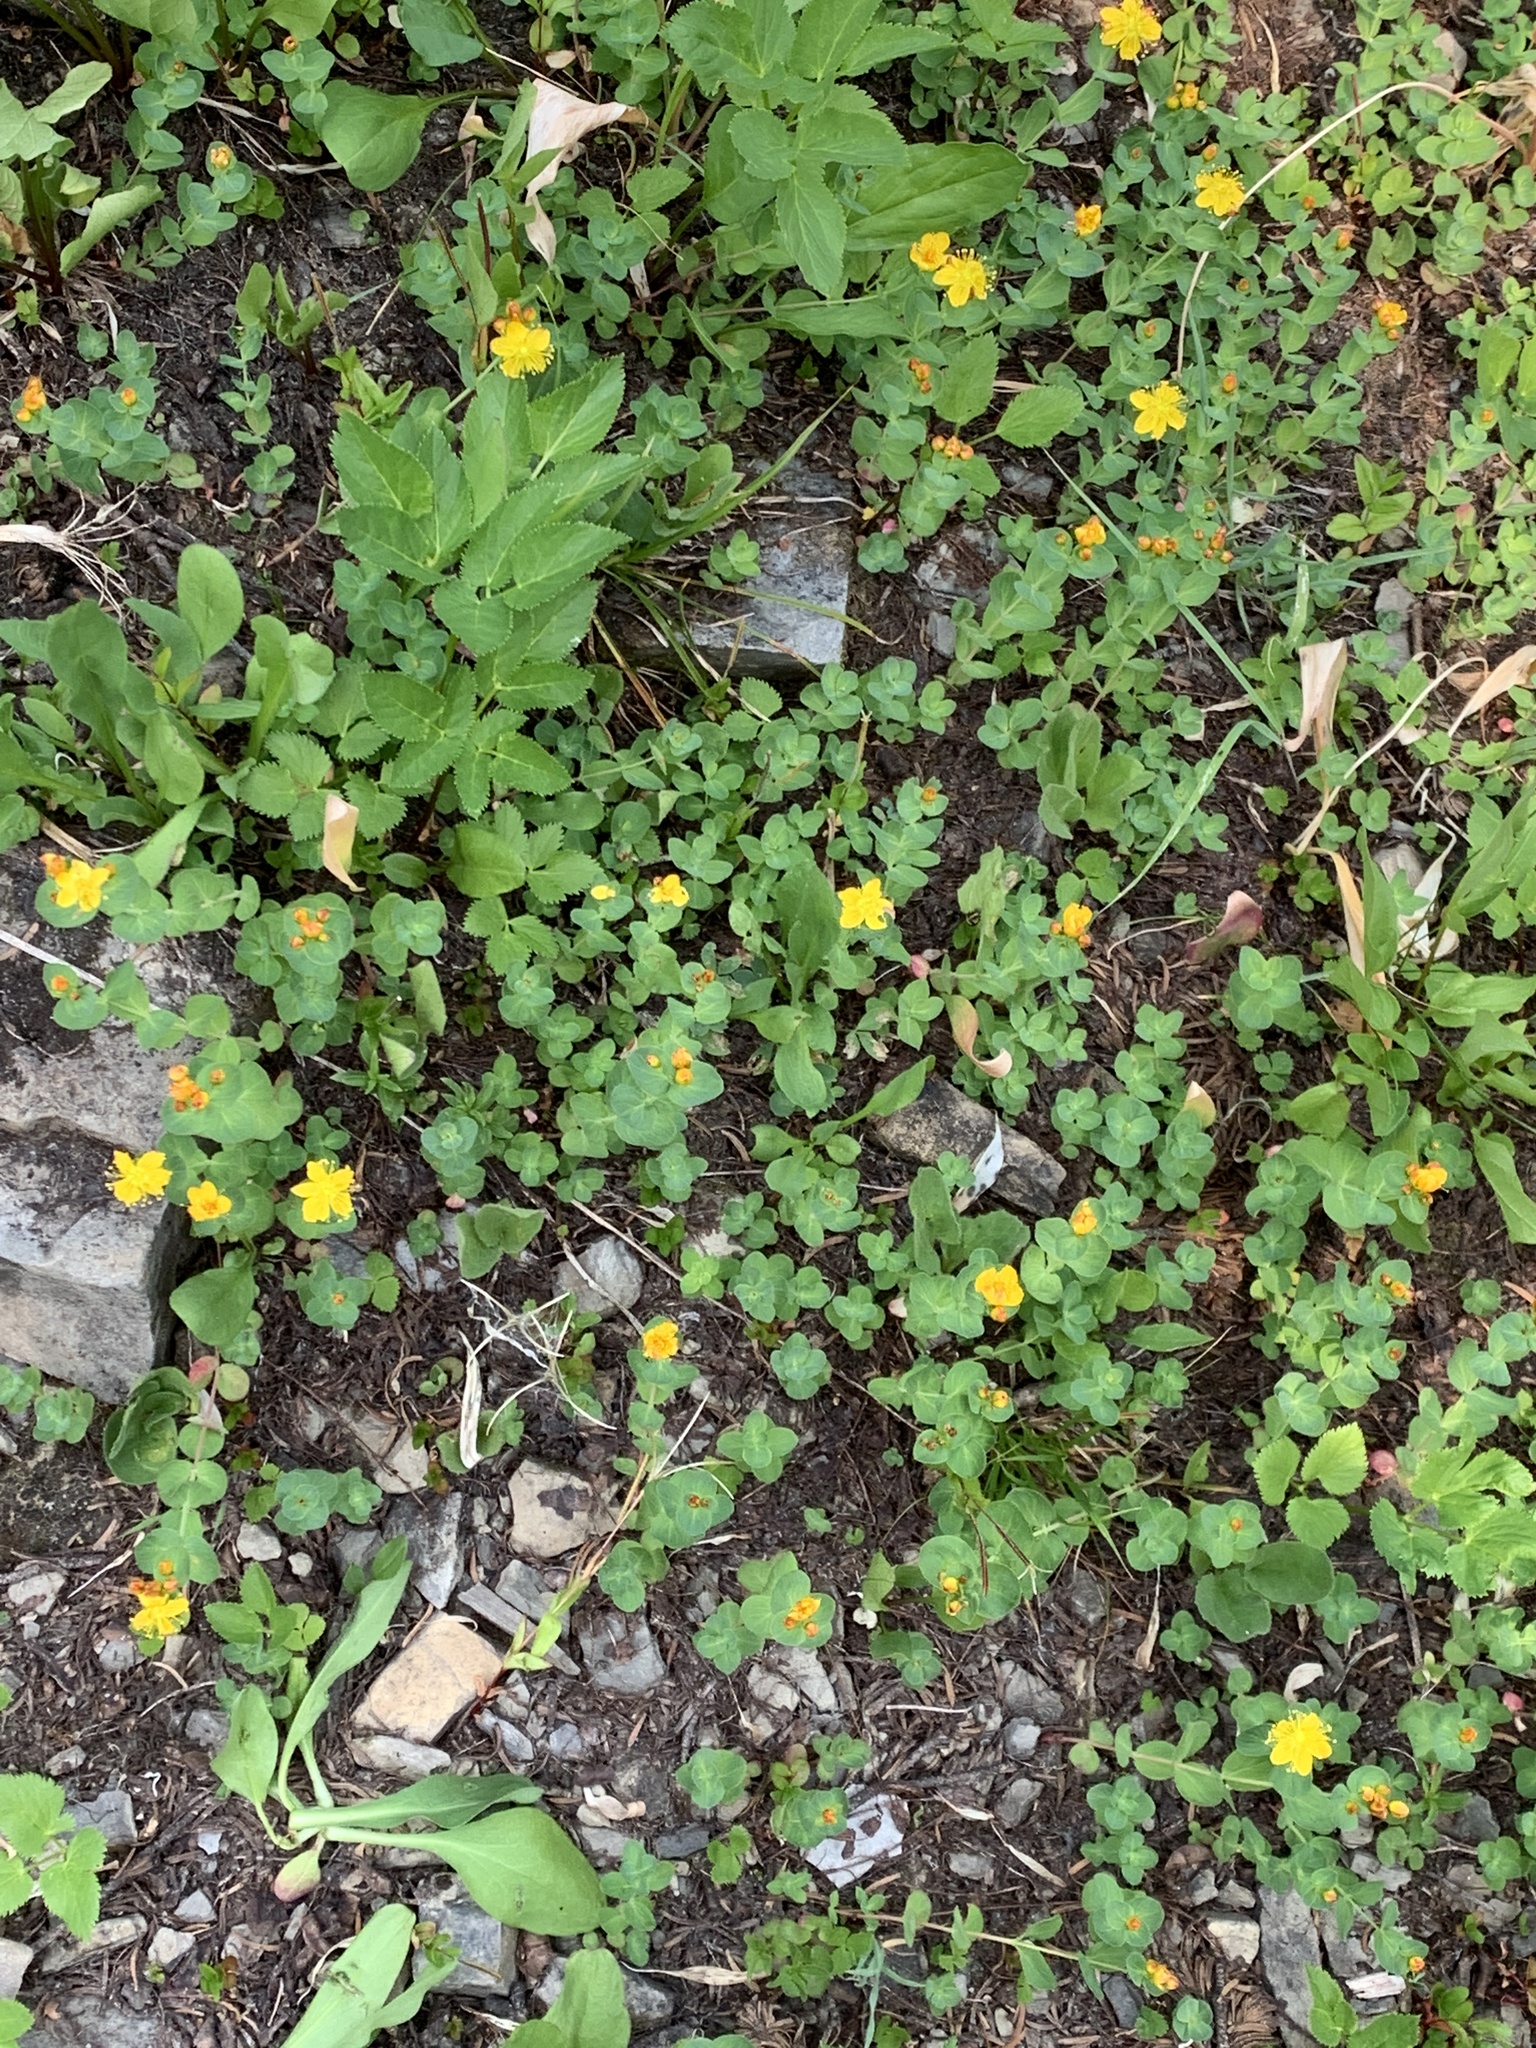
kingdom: Plantae
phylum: Tracheophyta
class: Magnoliopsida
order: Malpighiales
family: Hypericaceae
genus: Hypericum
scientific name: Hypericum scouleri
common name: Scouler's st. john's-wort
